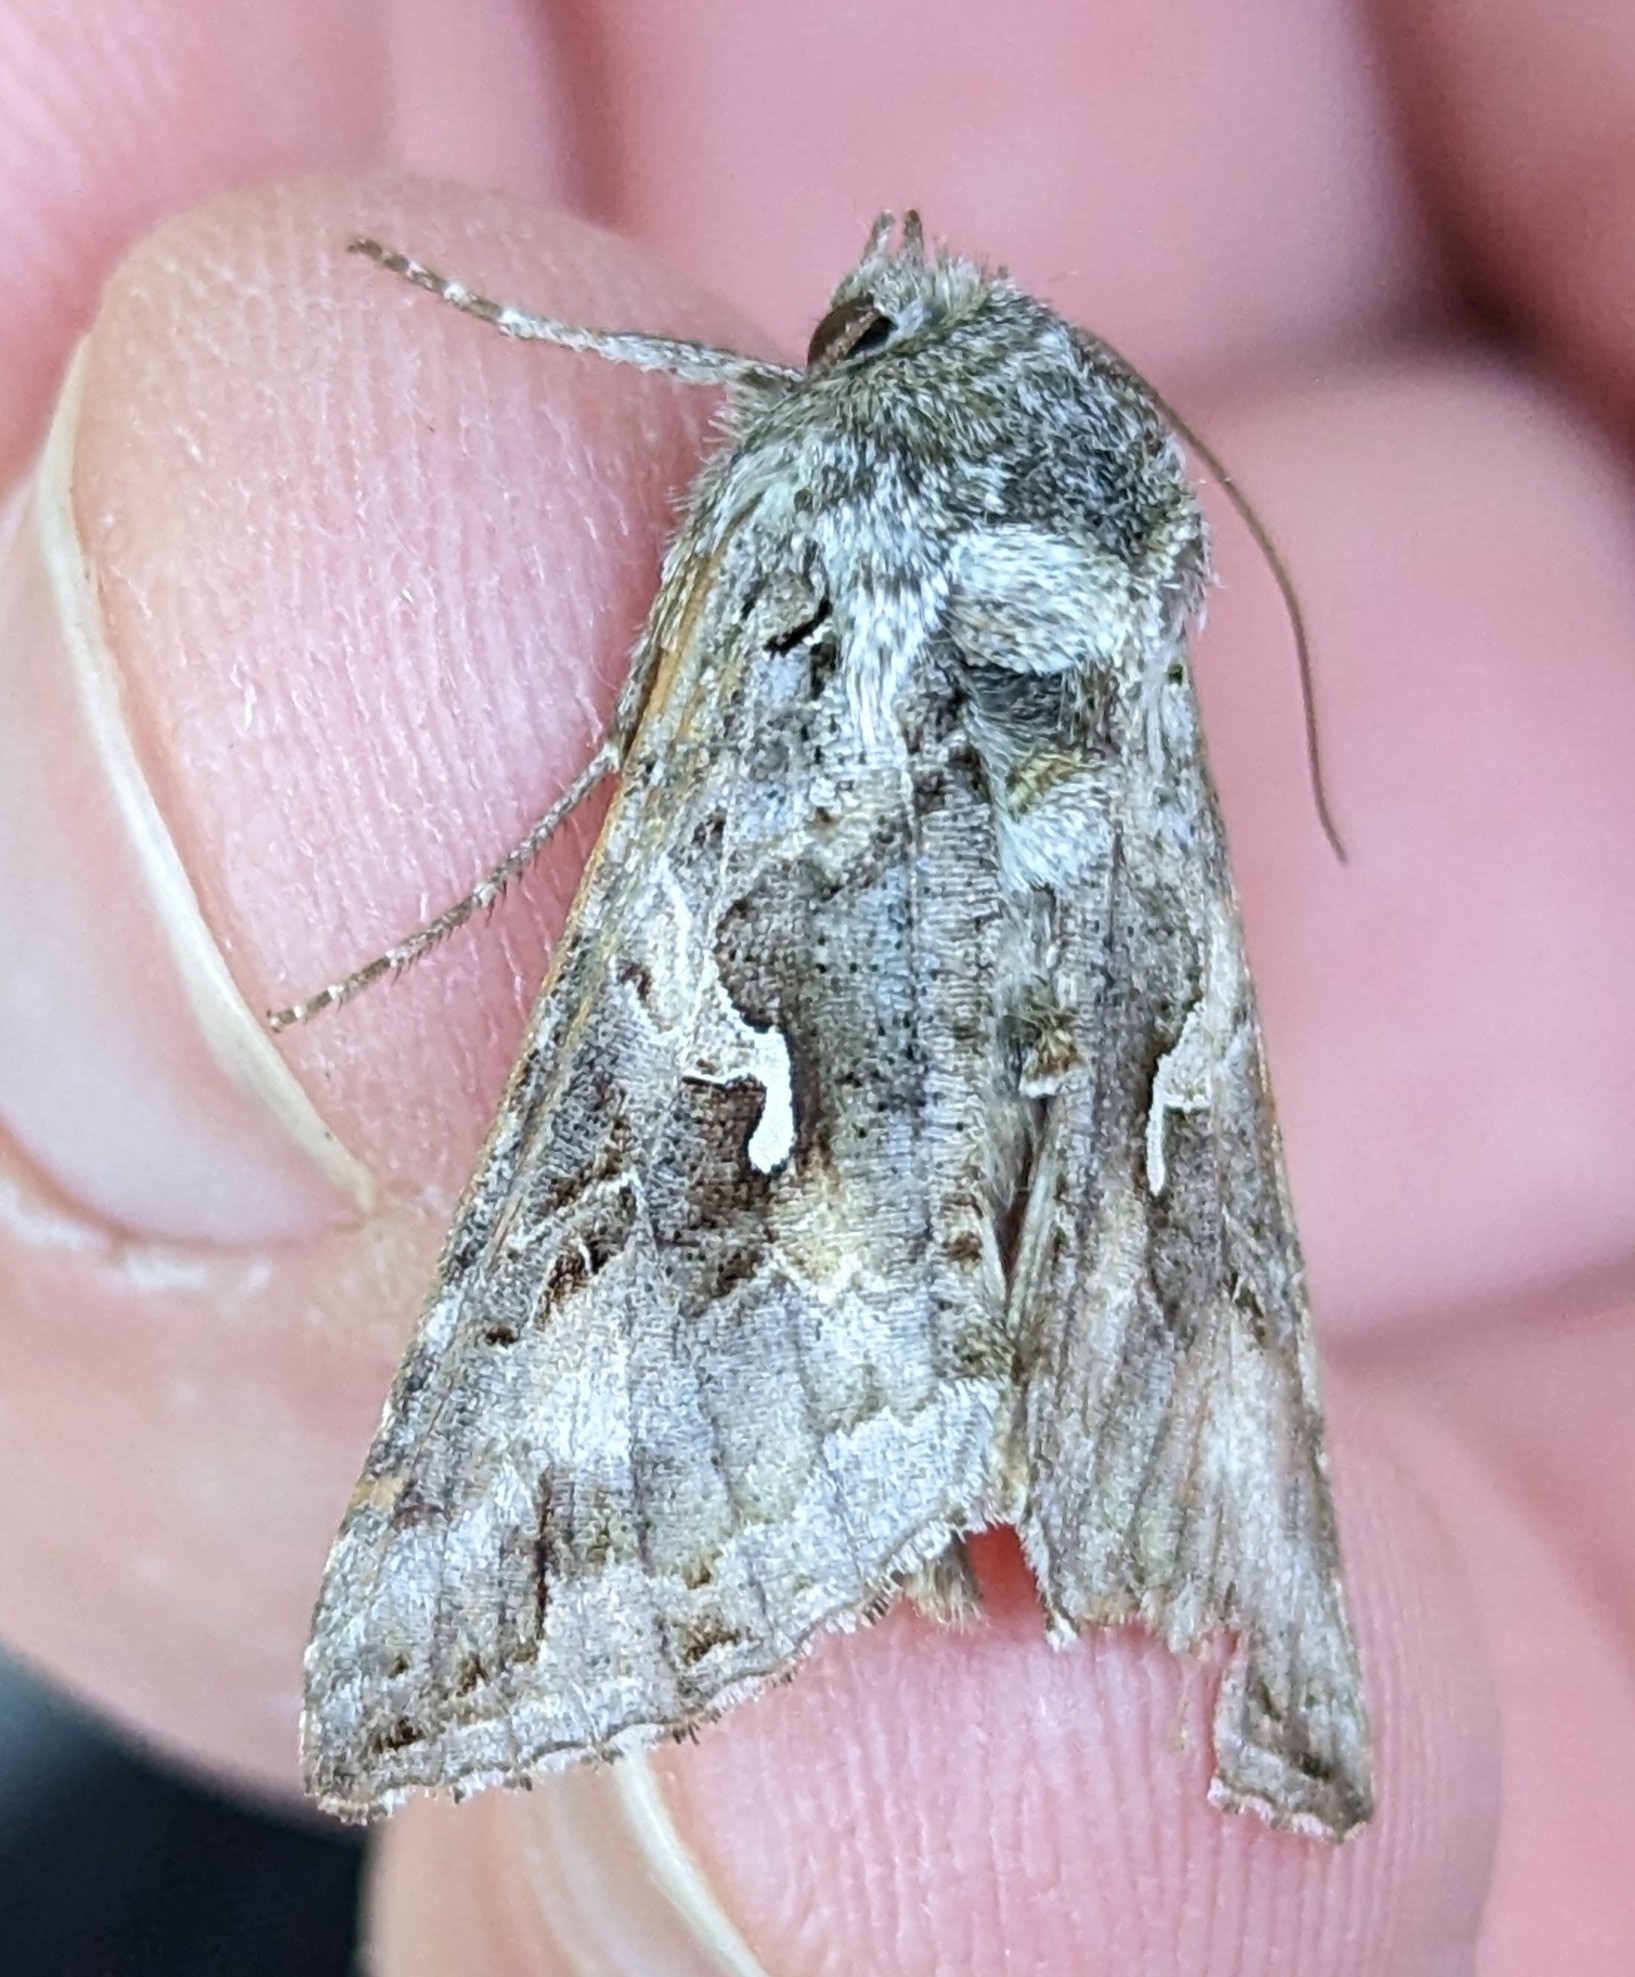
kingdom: Animalia
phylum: Arthropoda
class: Insecta
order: Lepidoptera
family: Noctuidae
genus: Autographa
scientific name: Autographa californica
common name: Alfalfa looper
